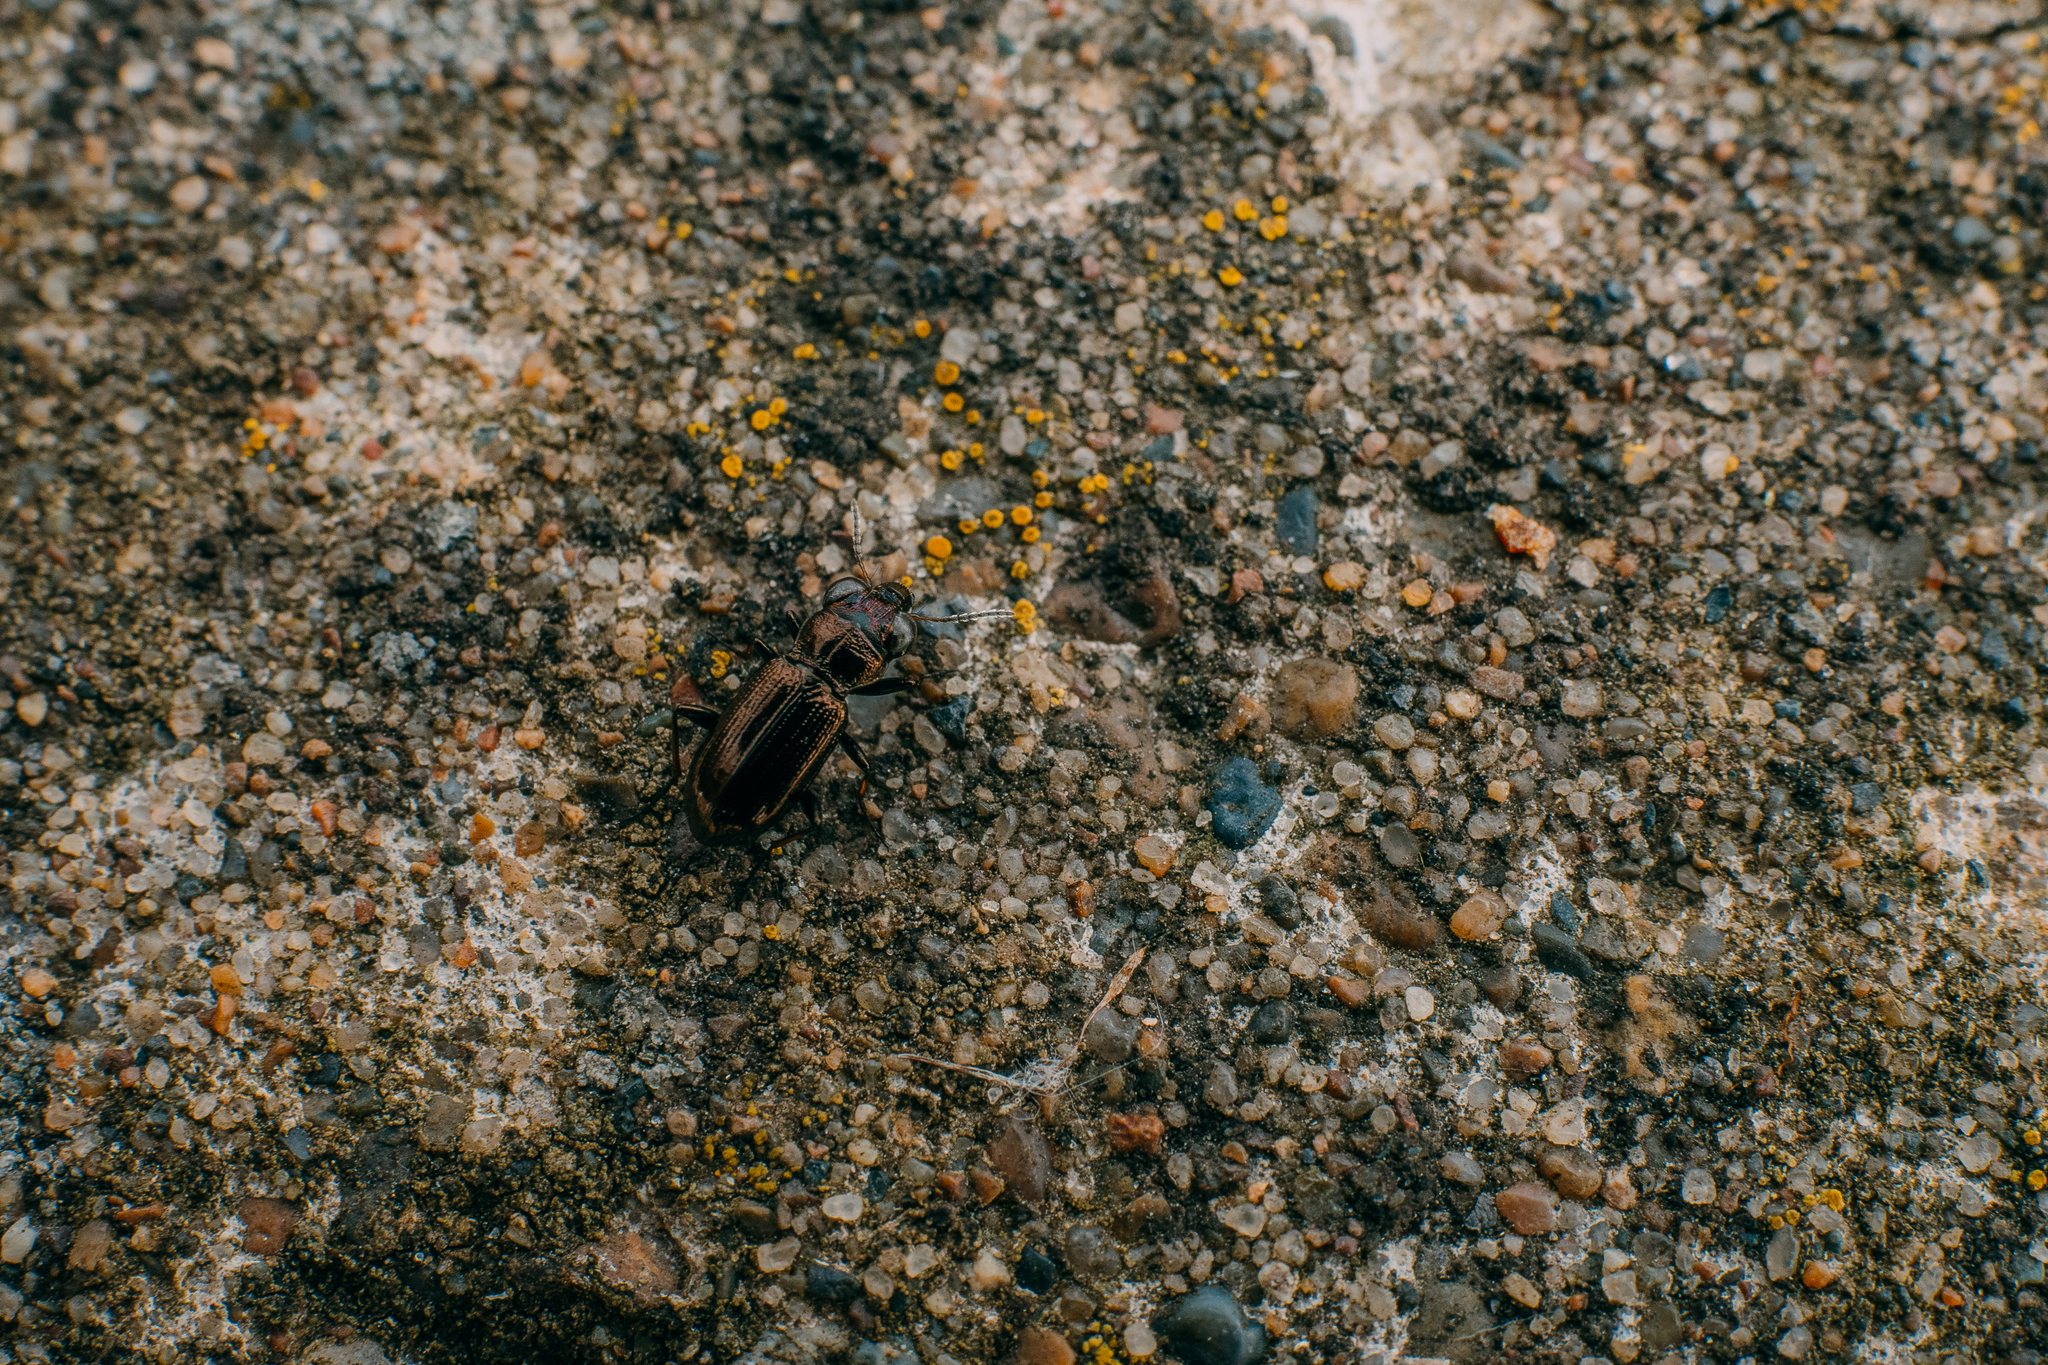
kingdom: Animalia
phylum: Arthropoda
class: Insecta
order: Coleoptera
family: Carabidae
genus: Notiophilus
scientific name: Notiophilus palustris
